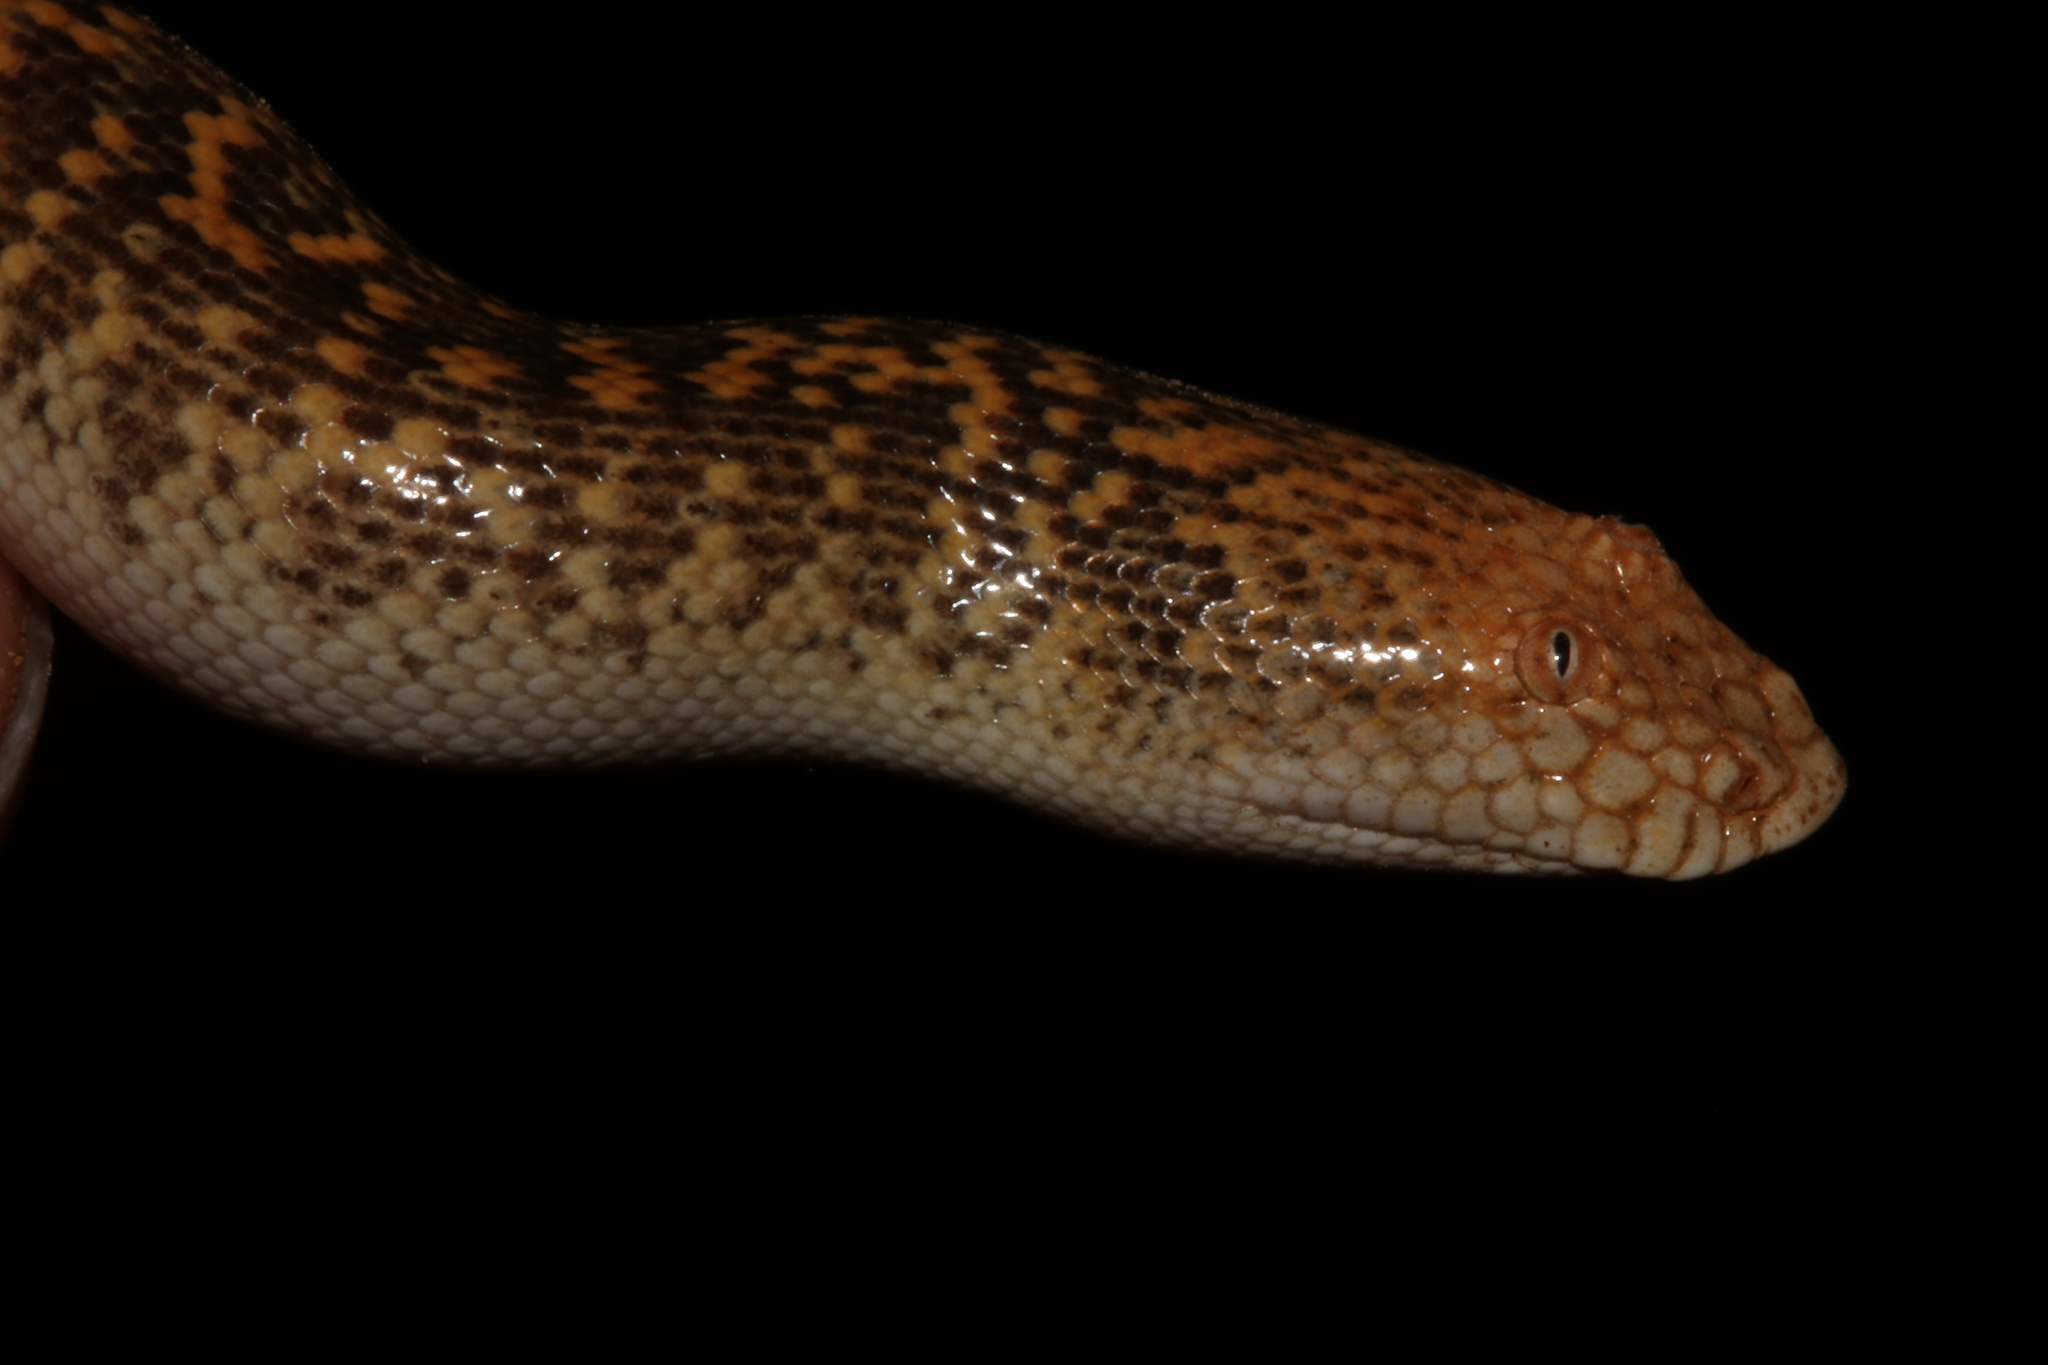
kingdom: Animalia
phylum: Chordata
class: Squamata
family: Boidae
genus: Eryx
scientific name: Eryx jayakari
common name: Arabian sand boa
